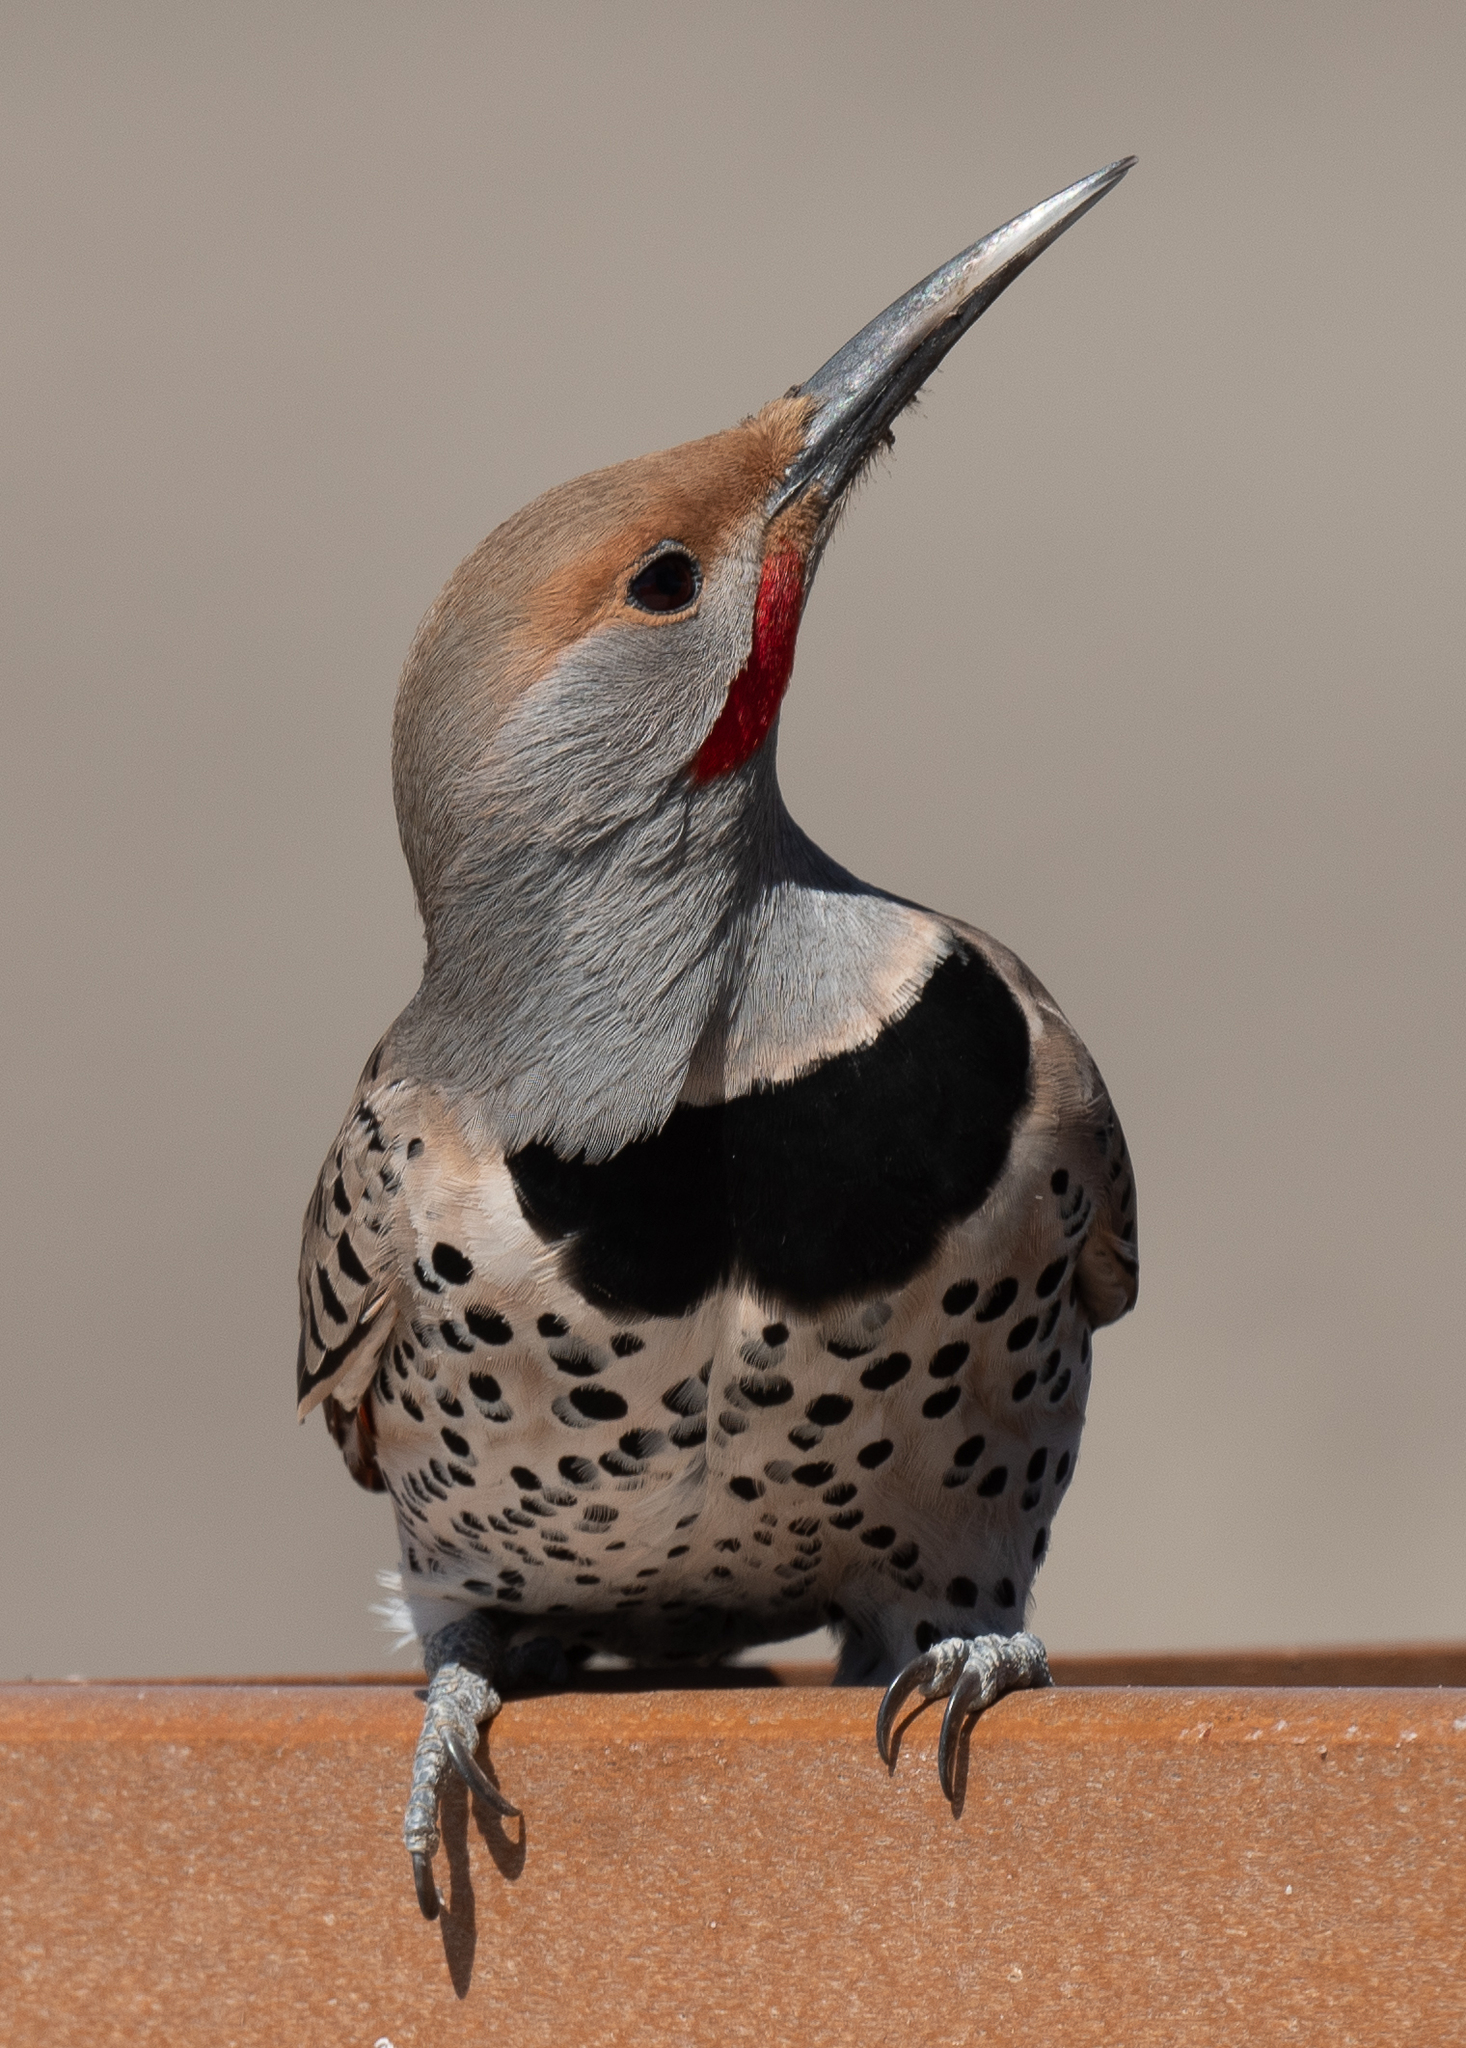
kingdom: Animalia
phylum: Chordata
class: Aves
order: Piciformes
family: Picidae
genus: Colaptes
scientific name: Colaptes auratus
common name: Northern flicker
